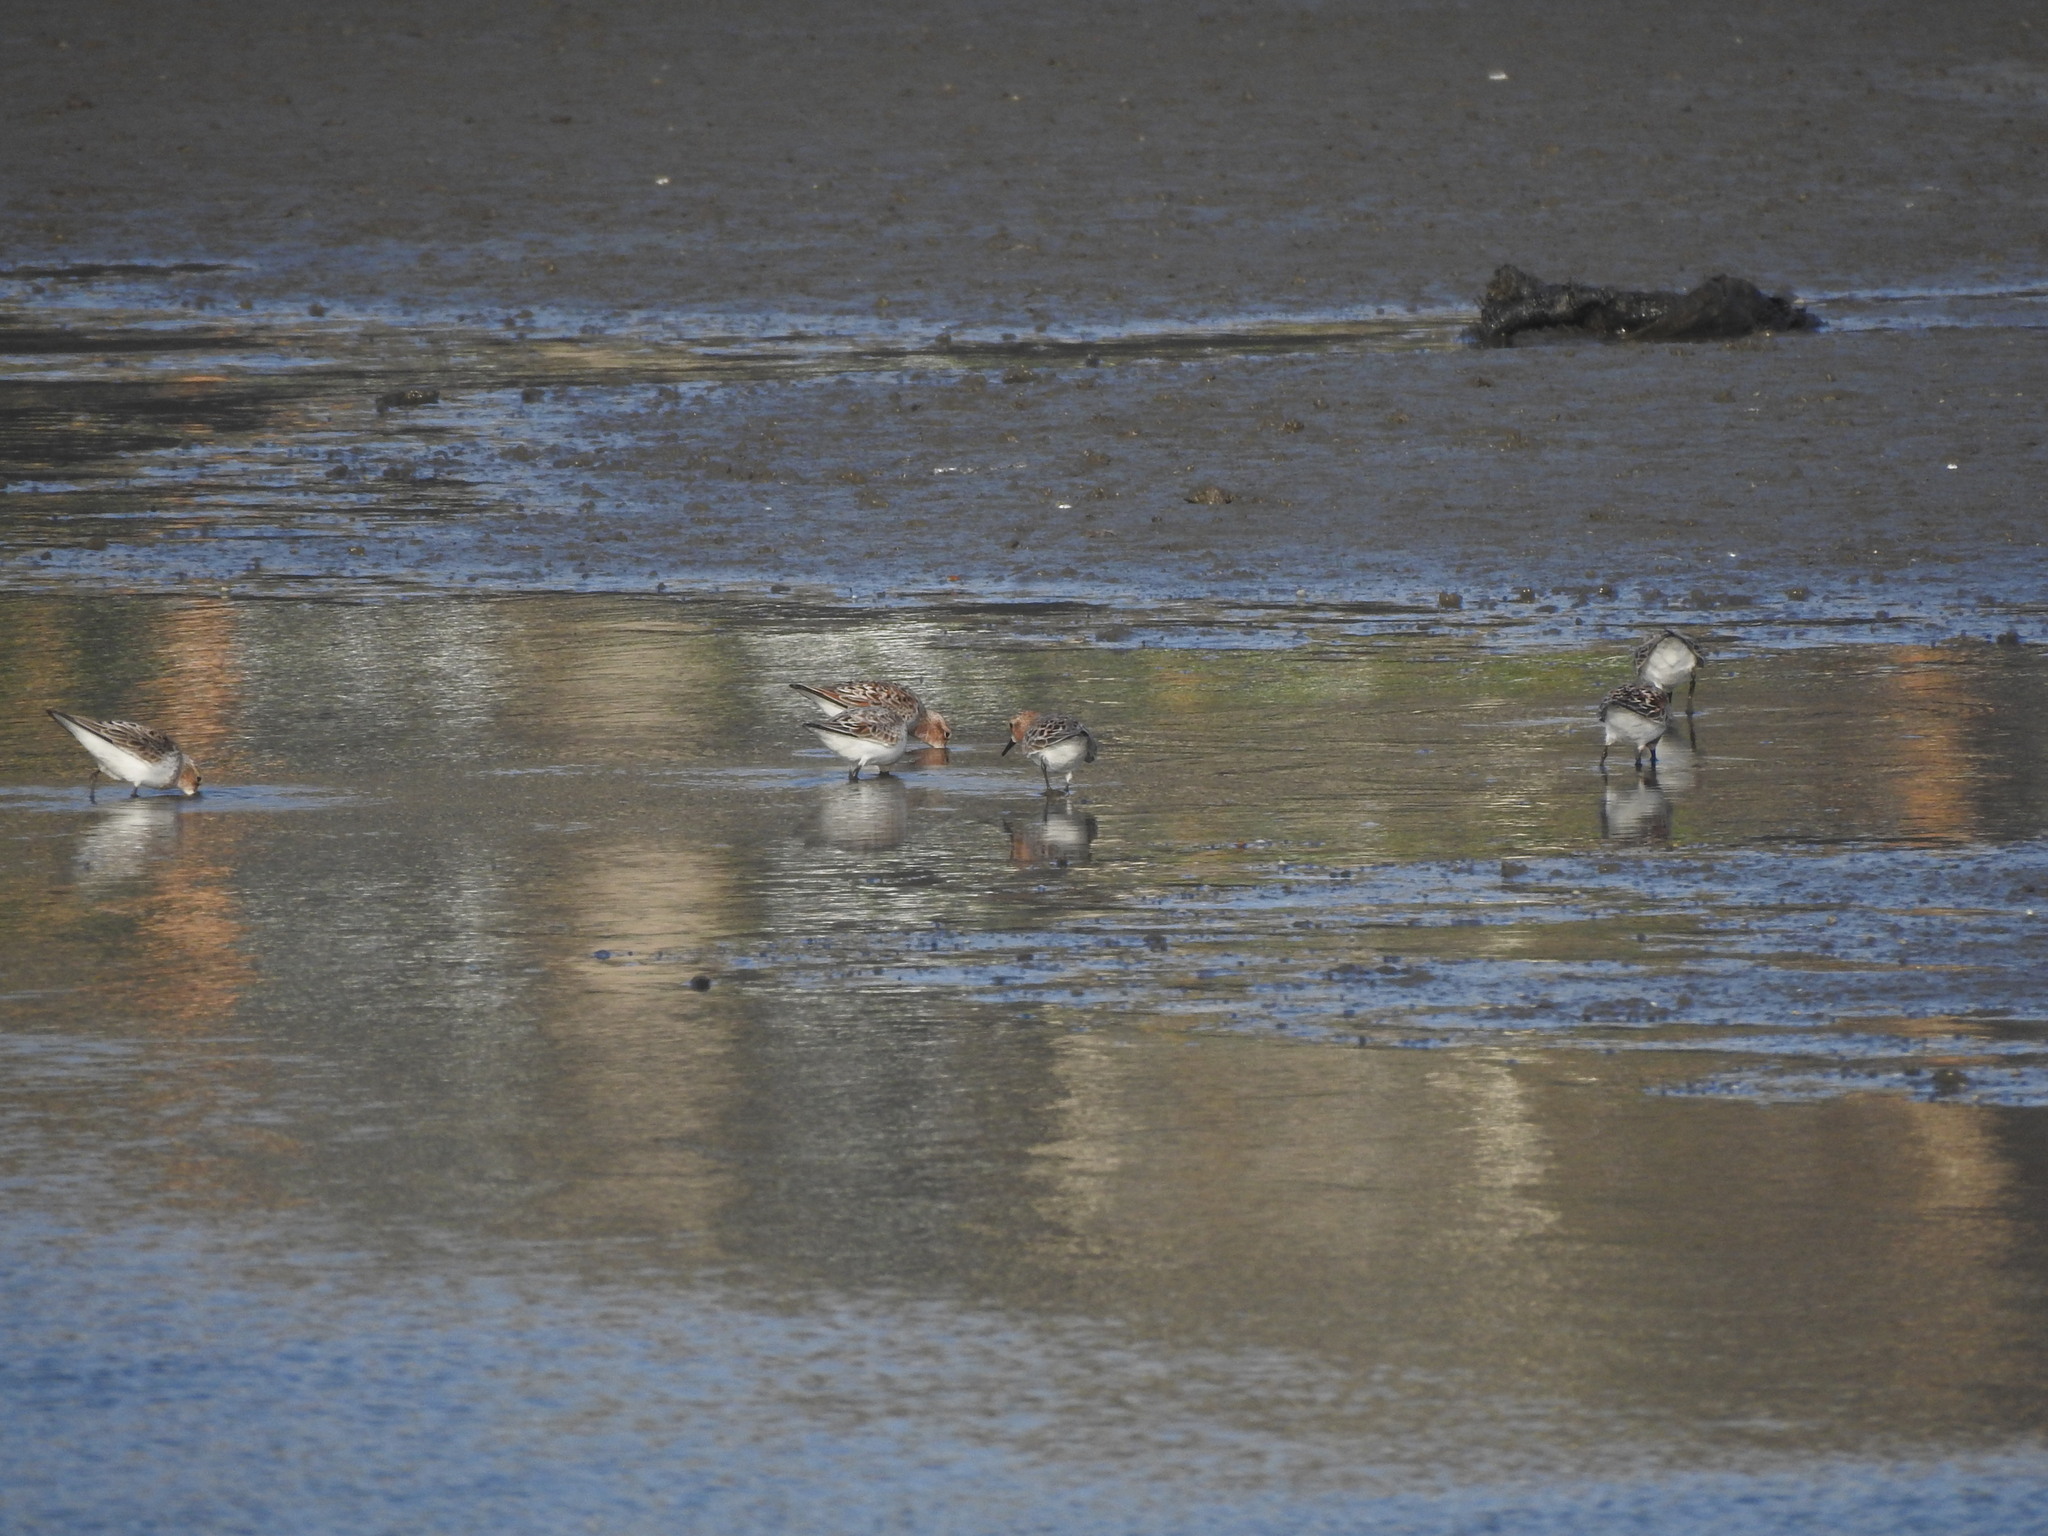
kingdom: Animalia
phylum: Chordata
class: Aves
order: Charadriiformes
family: Scolopacidae
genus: Calidris
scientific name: Calidris ruficollis
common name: Red-necked stint
